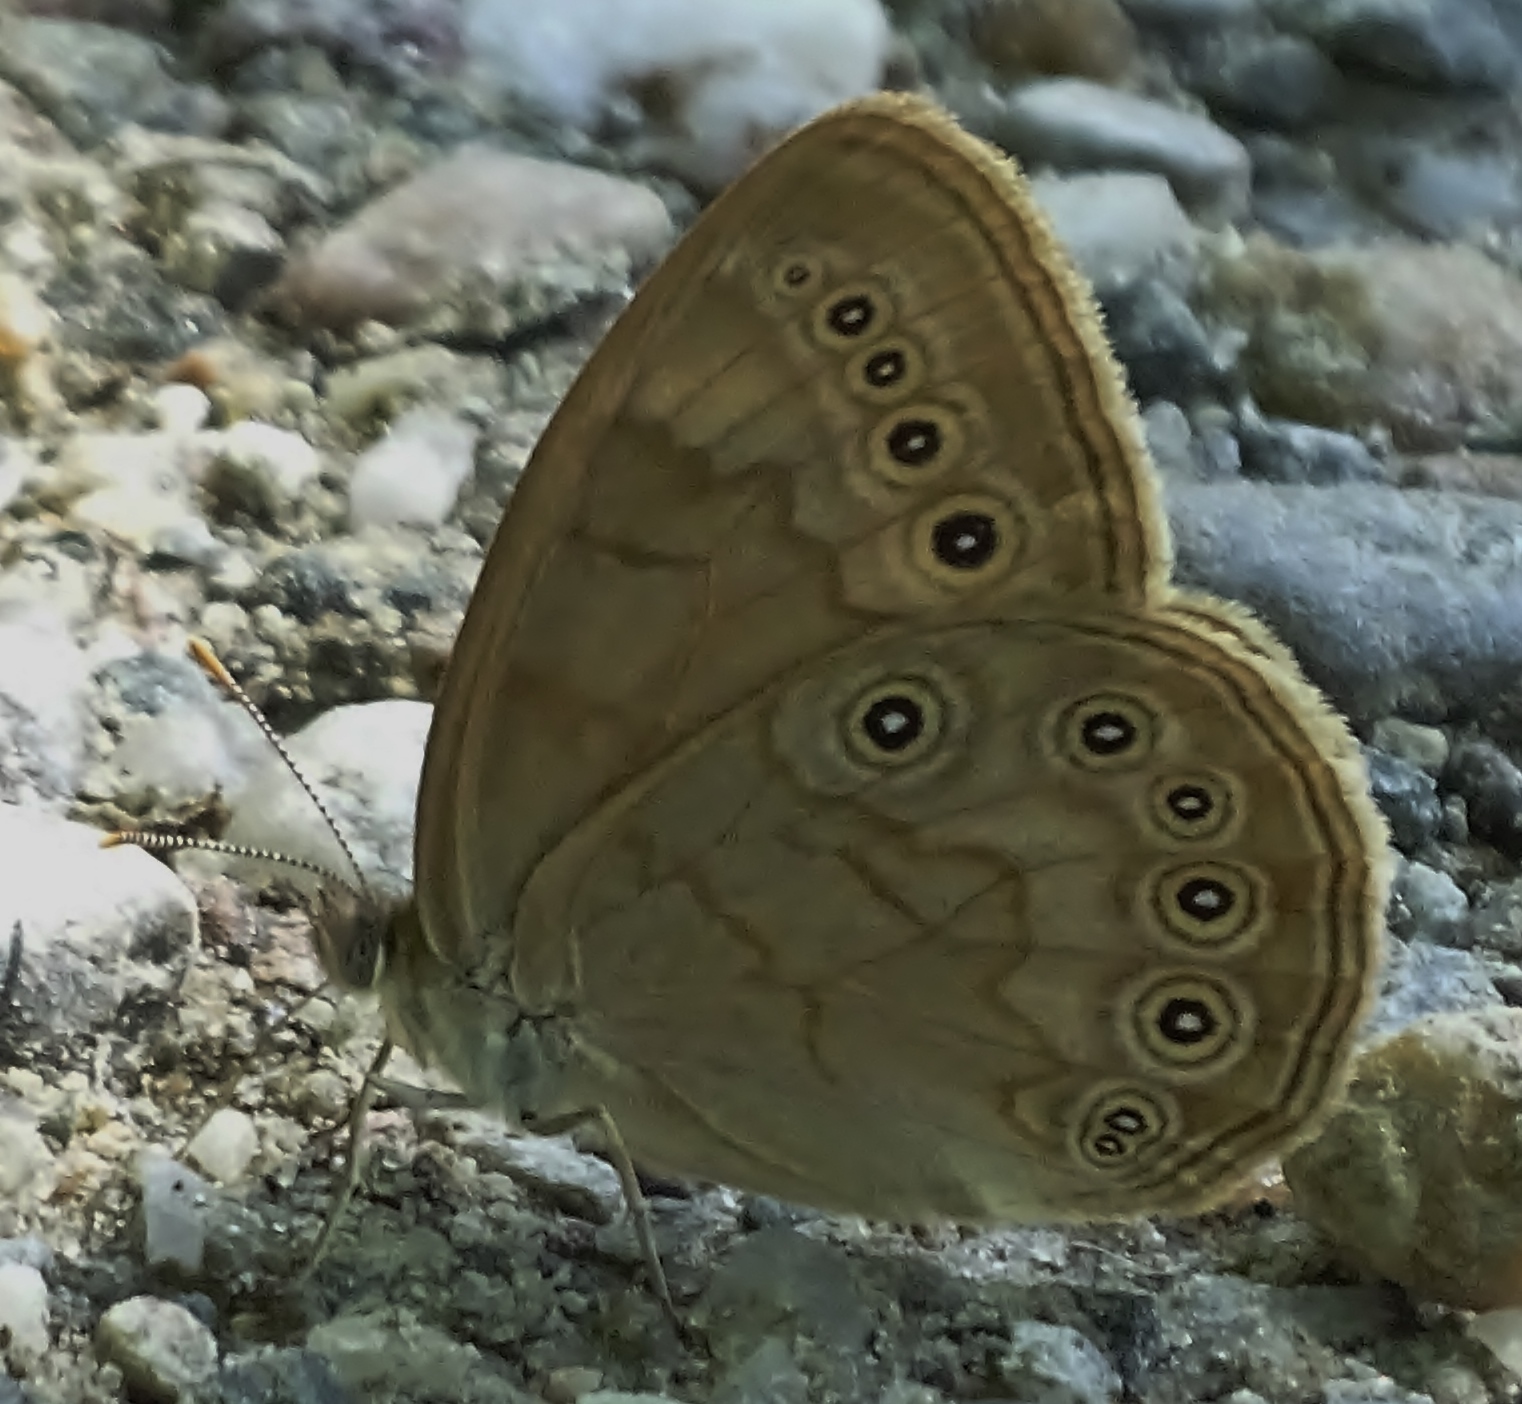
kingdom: Animalia
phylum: Arthropoda
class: Insecta
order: Lepidoptera
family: Nymphalidae
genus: Lethe
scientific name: Lethe eurydice
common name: Eyed brown
